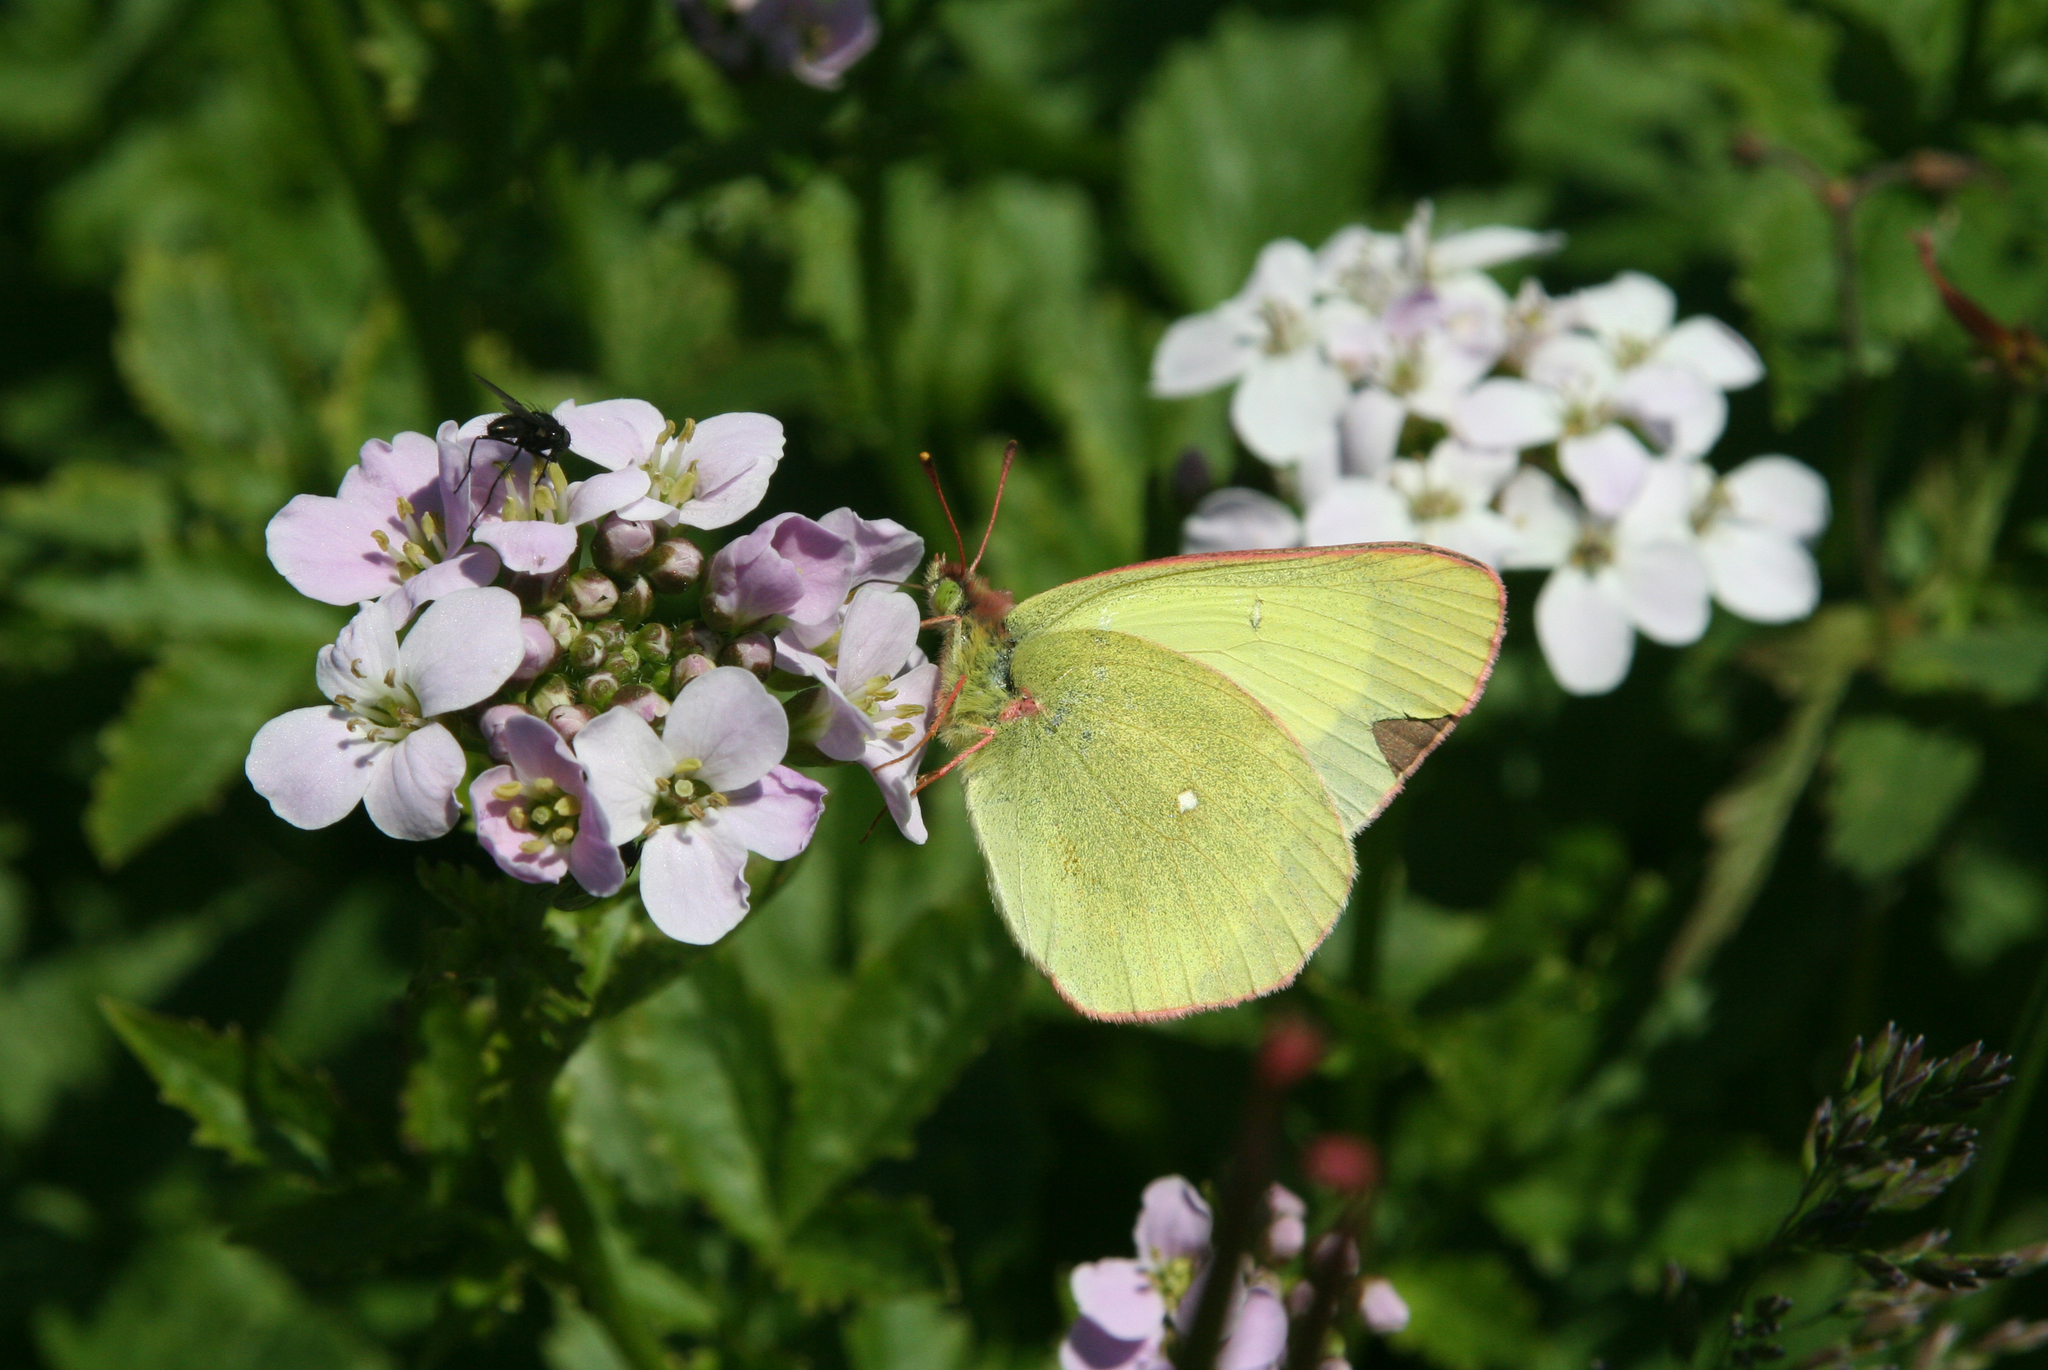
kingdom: Animalia
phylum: Arthropoda
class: Insecta
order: Lepidoptera
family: Pieridae
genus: Colias
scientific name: Colias palaeno
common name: Moorland clouded yellow
